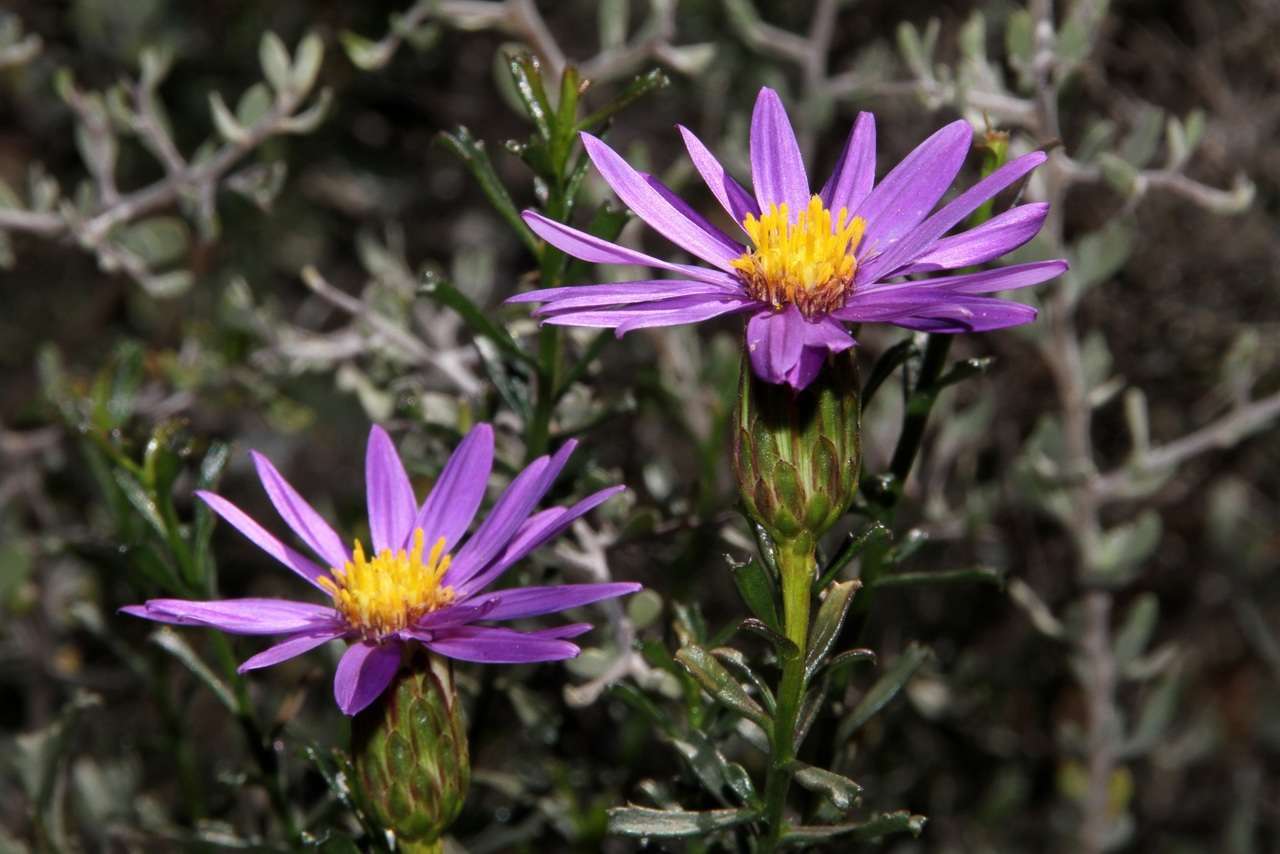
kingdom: Plantae
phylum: Tracheophyta
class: Magnoliopsida
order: Asterales
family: Asteraceae
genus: Walsholaria
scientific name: Walsholaria magniflora
